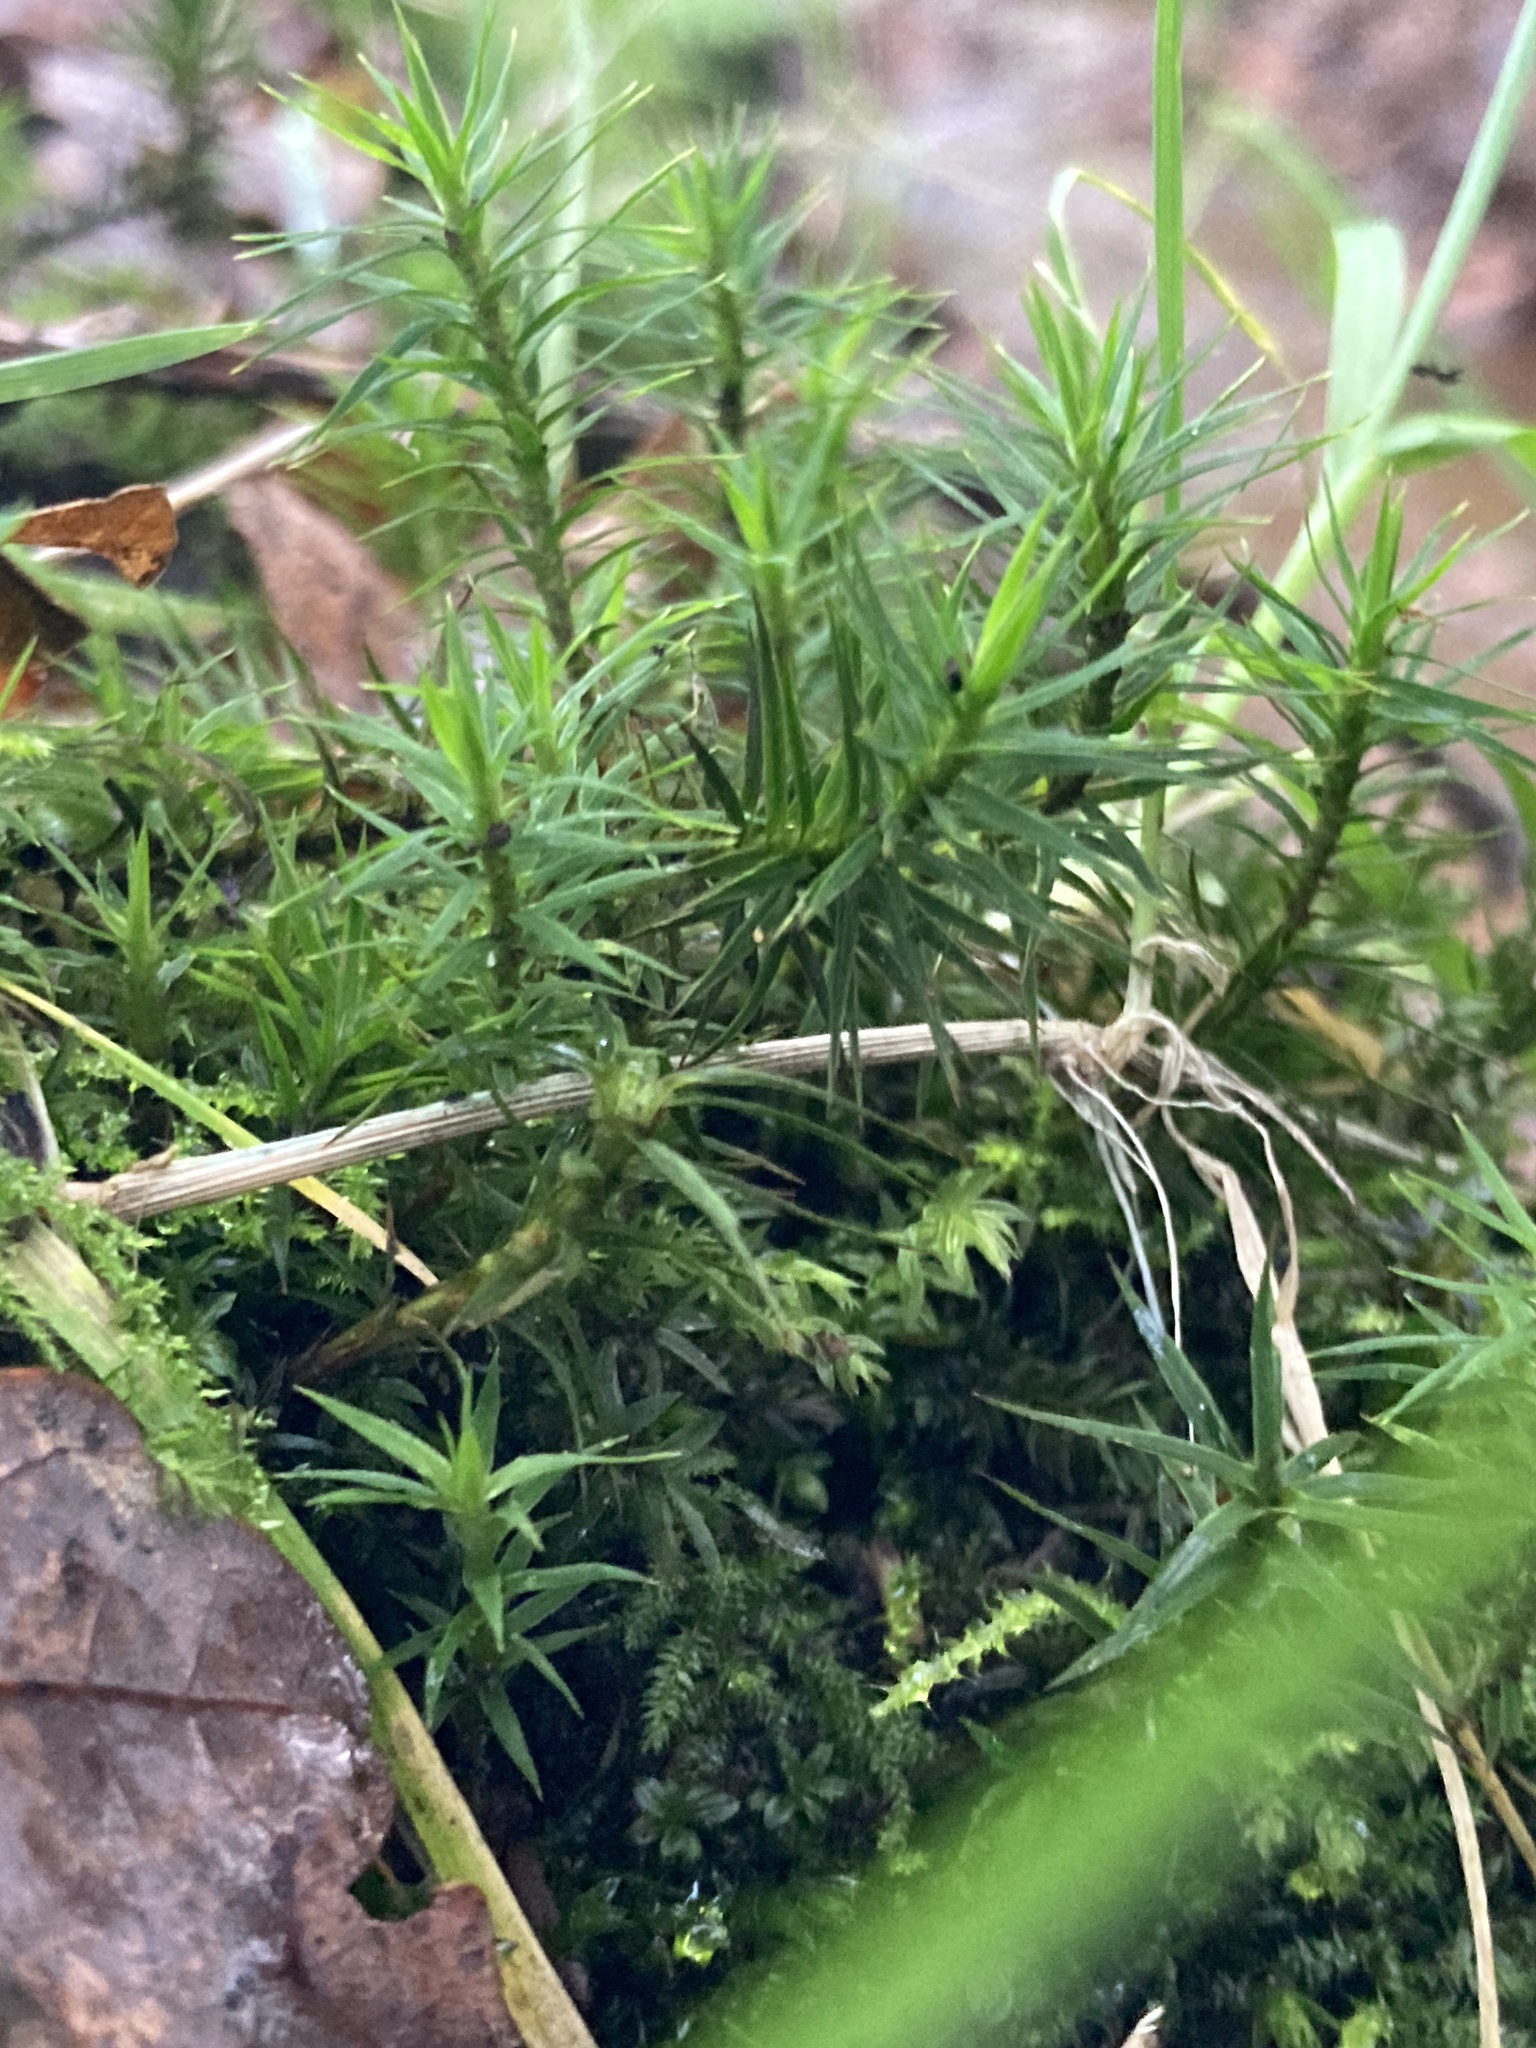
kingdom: Plantae
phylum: Bryophyta
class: Polytrichopsida
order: Polytrichales
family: Polytrichaceae
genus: Polytrichum
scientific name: Polytrichum formosum
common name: Bank haircap moss
